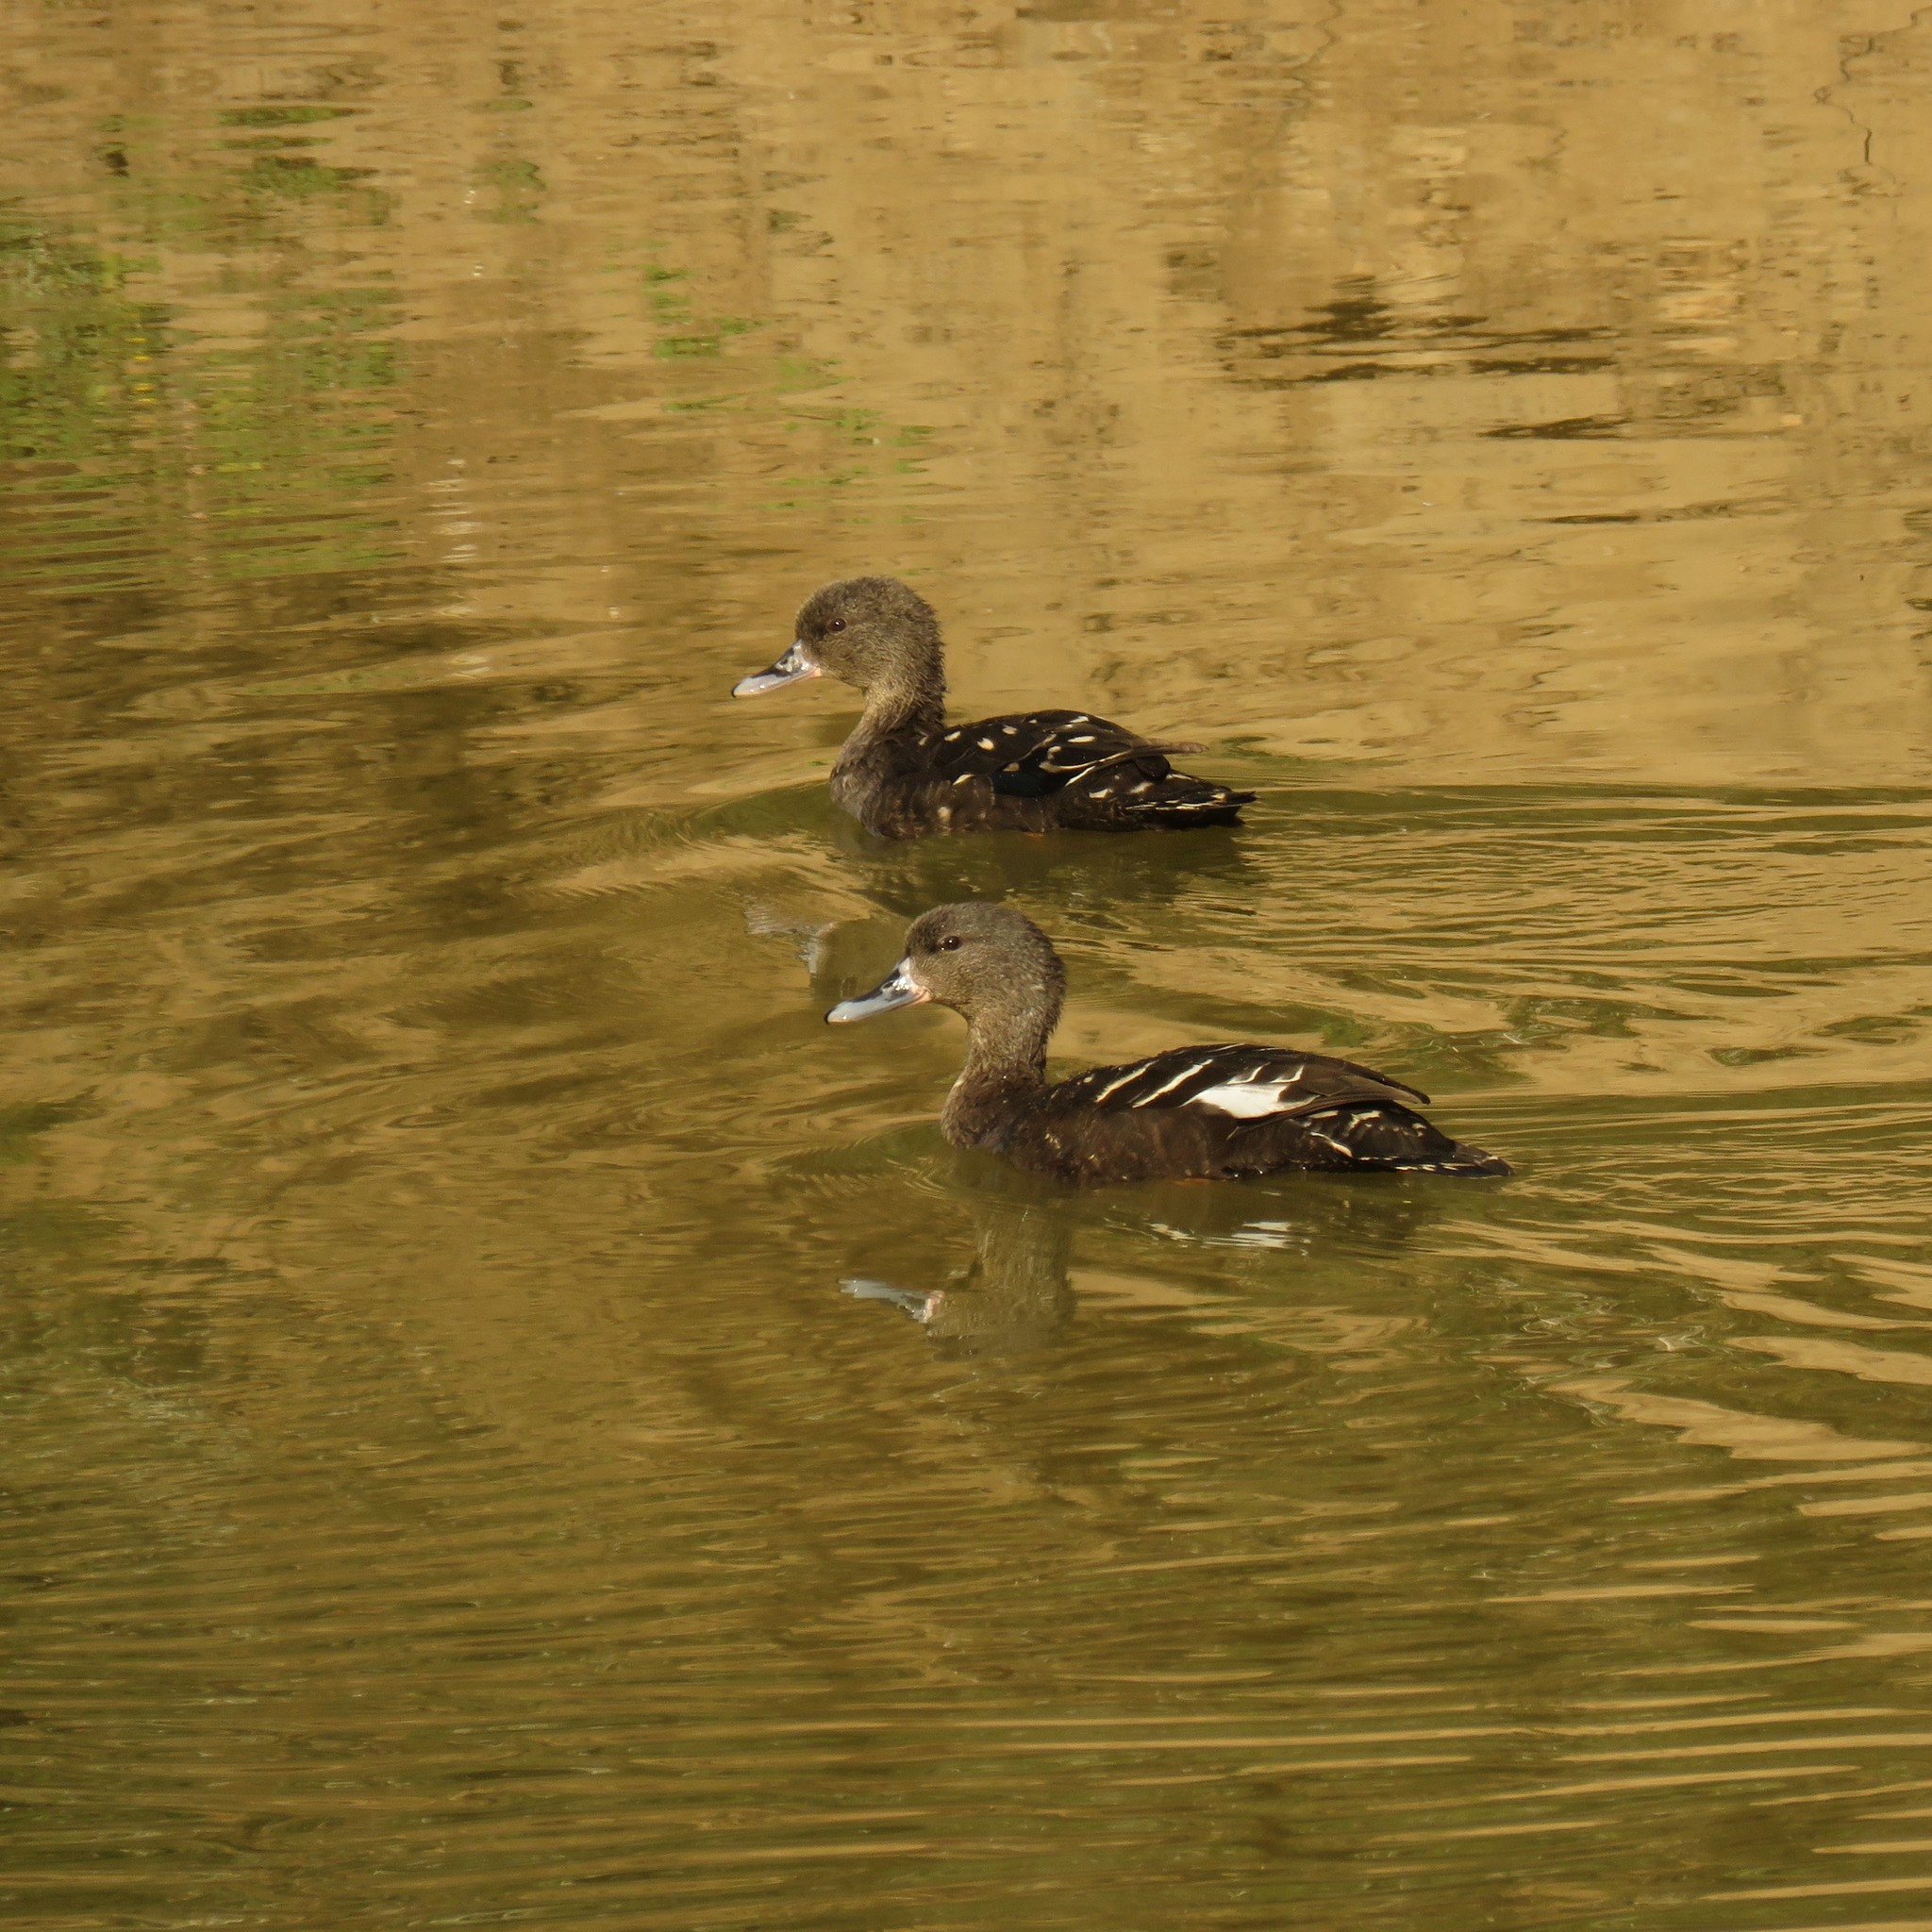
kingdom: Animalia
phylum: Chordata
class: Aves
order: Anseriformes
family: Anatidae
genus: Anas
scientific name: Anas sparsa
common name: African black duck
